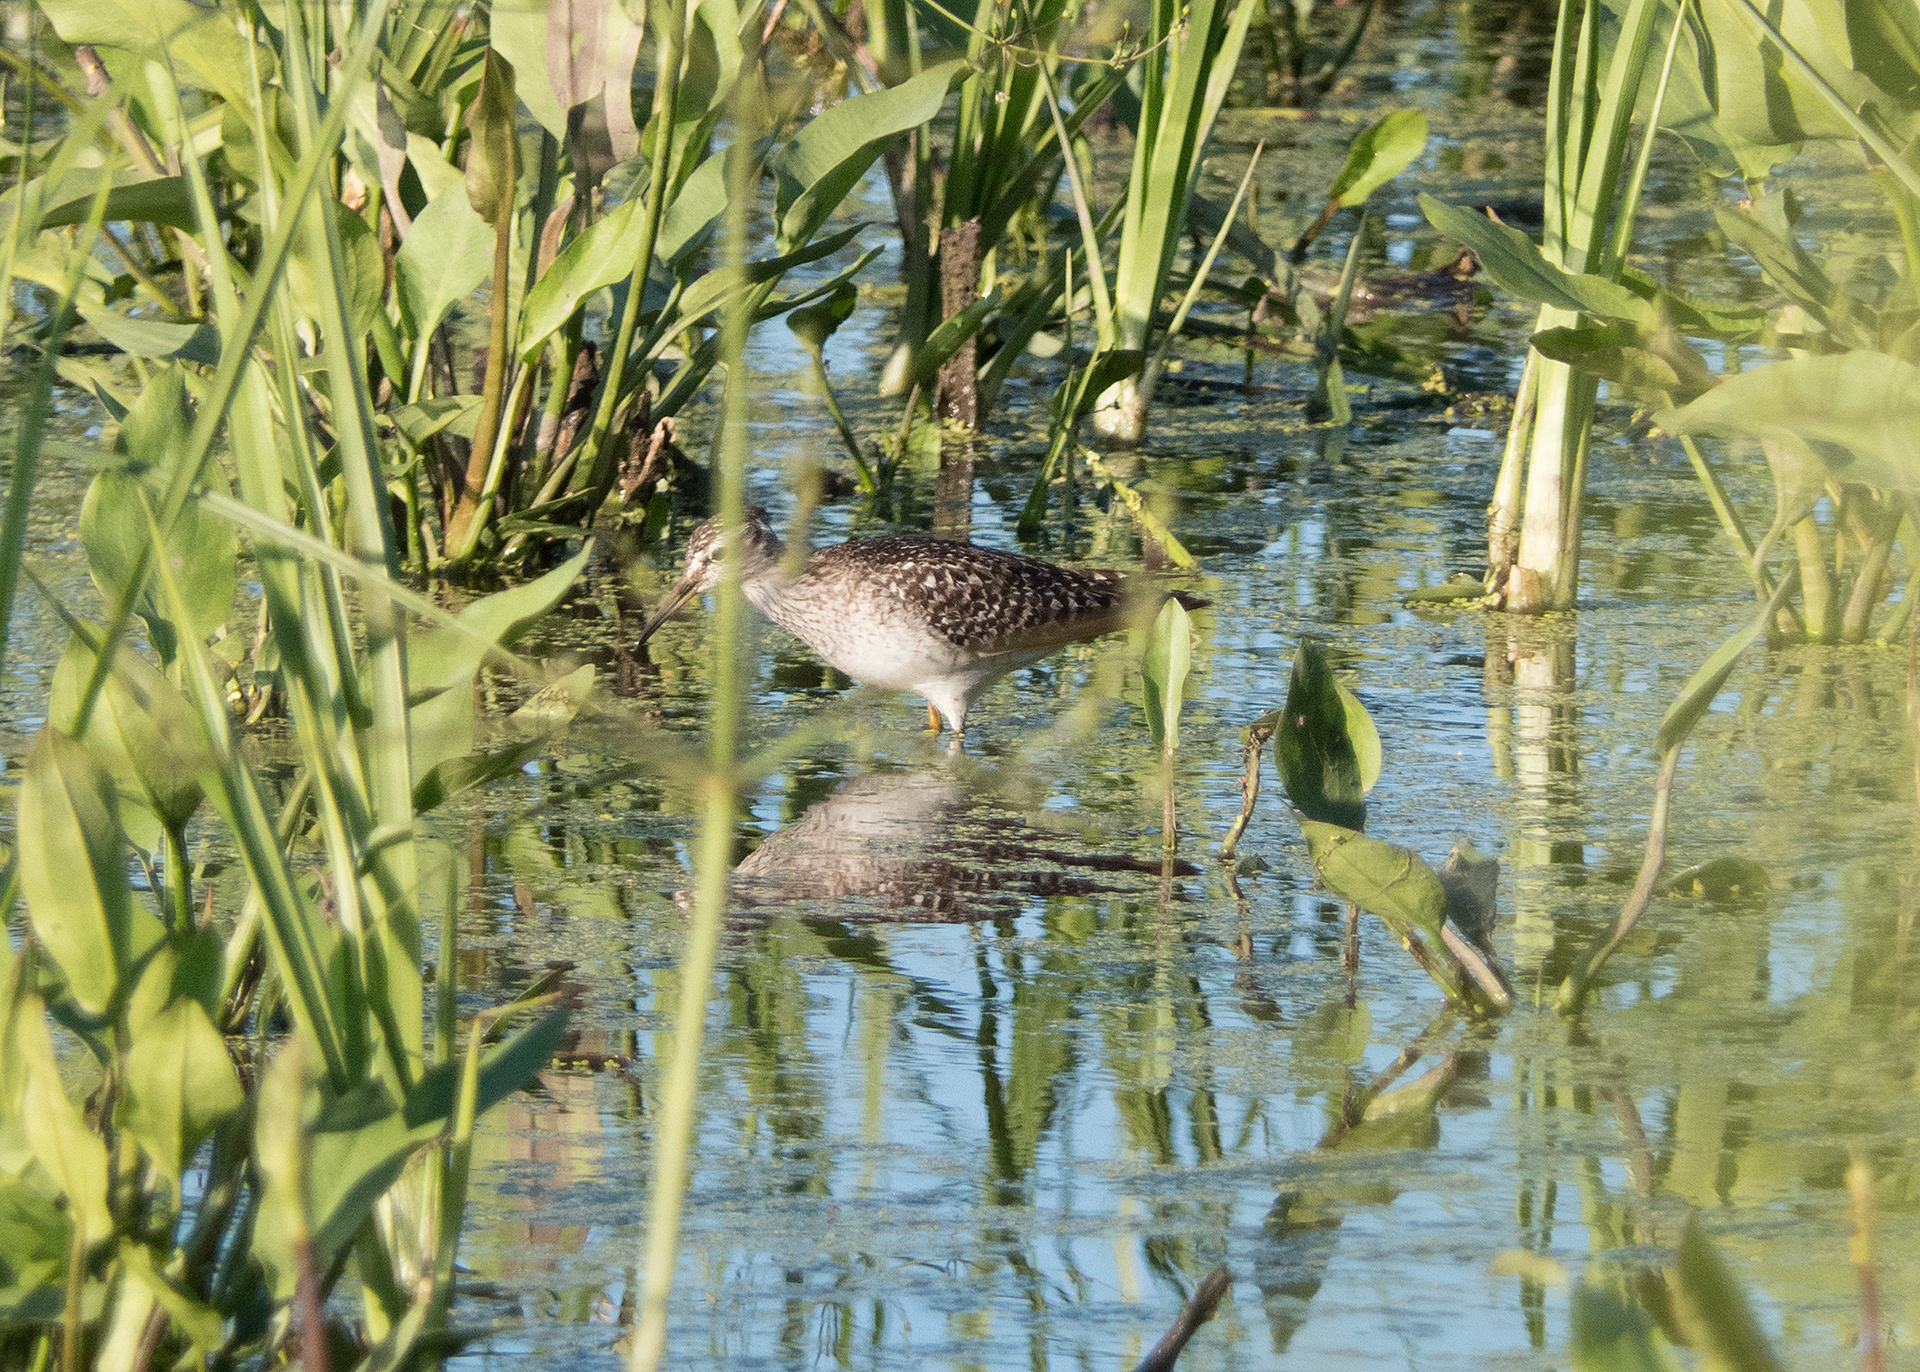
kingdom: Animalia
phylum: Chordata
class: Aves
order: Charadriiformes
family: Scolopacidae
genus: Tringa
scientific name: Tringa glareola
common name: Wood sandpiper
